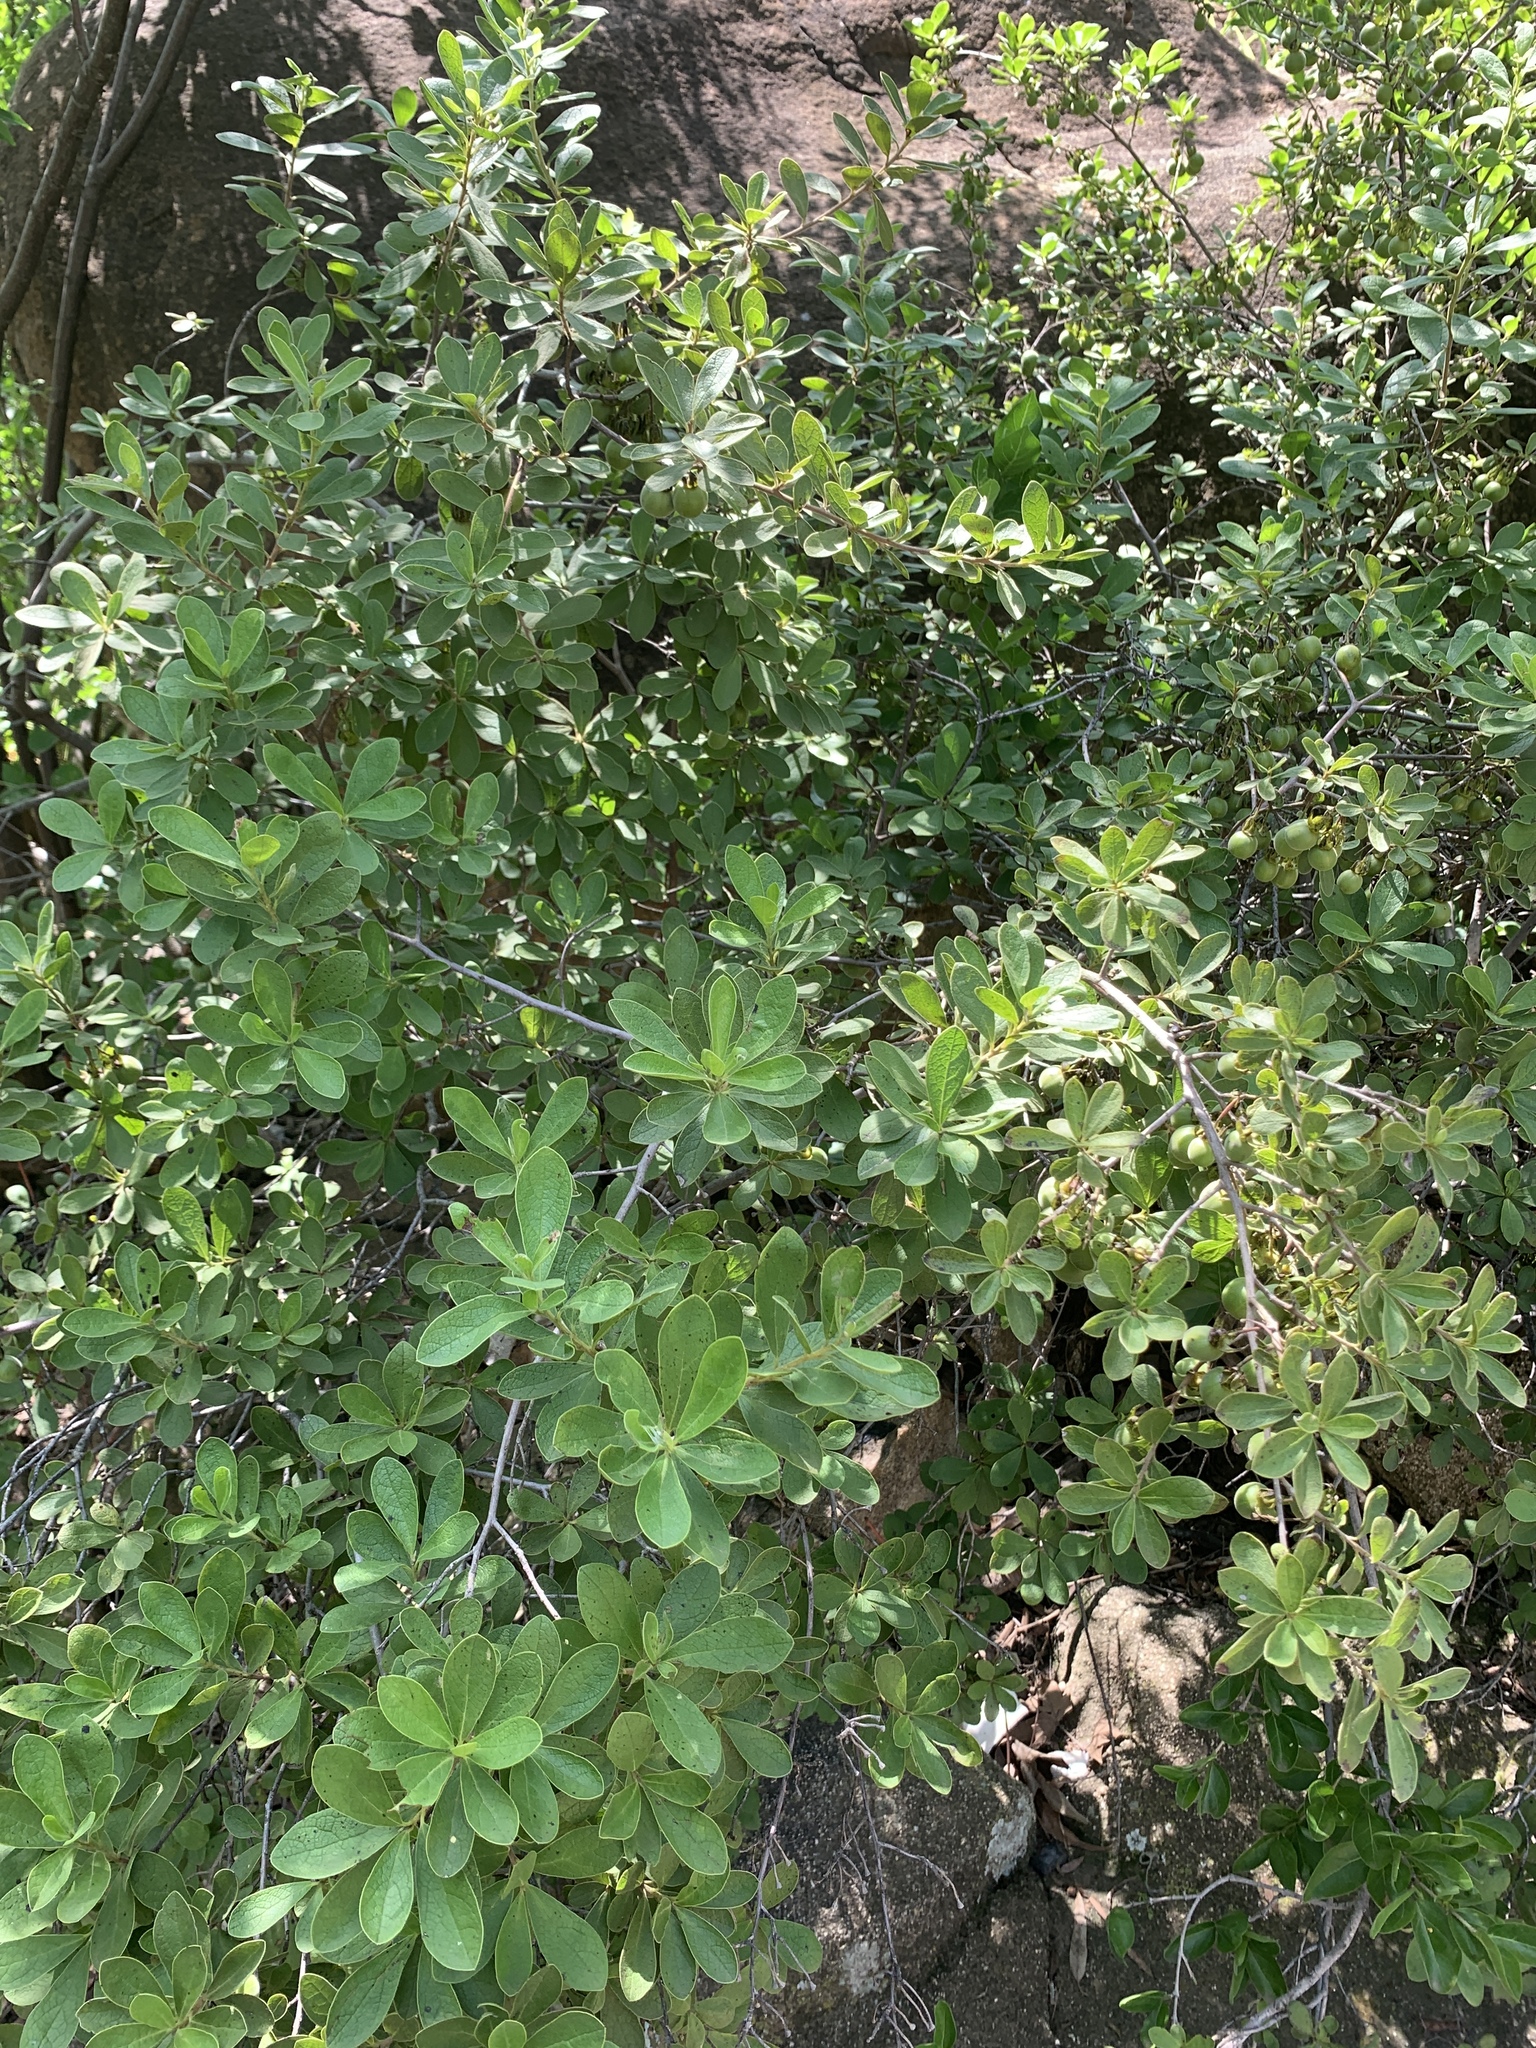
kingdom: Plantae
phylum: Tracheophyta
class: Magnoliopsida
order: Ericales
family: Ebenaceae
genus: Diospyros
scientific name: Diospyros lycioides
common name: Red star apple
